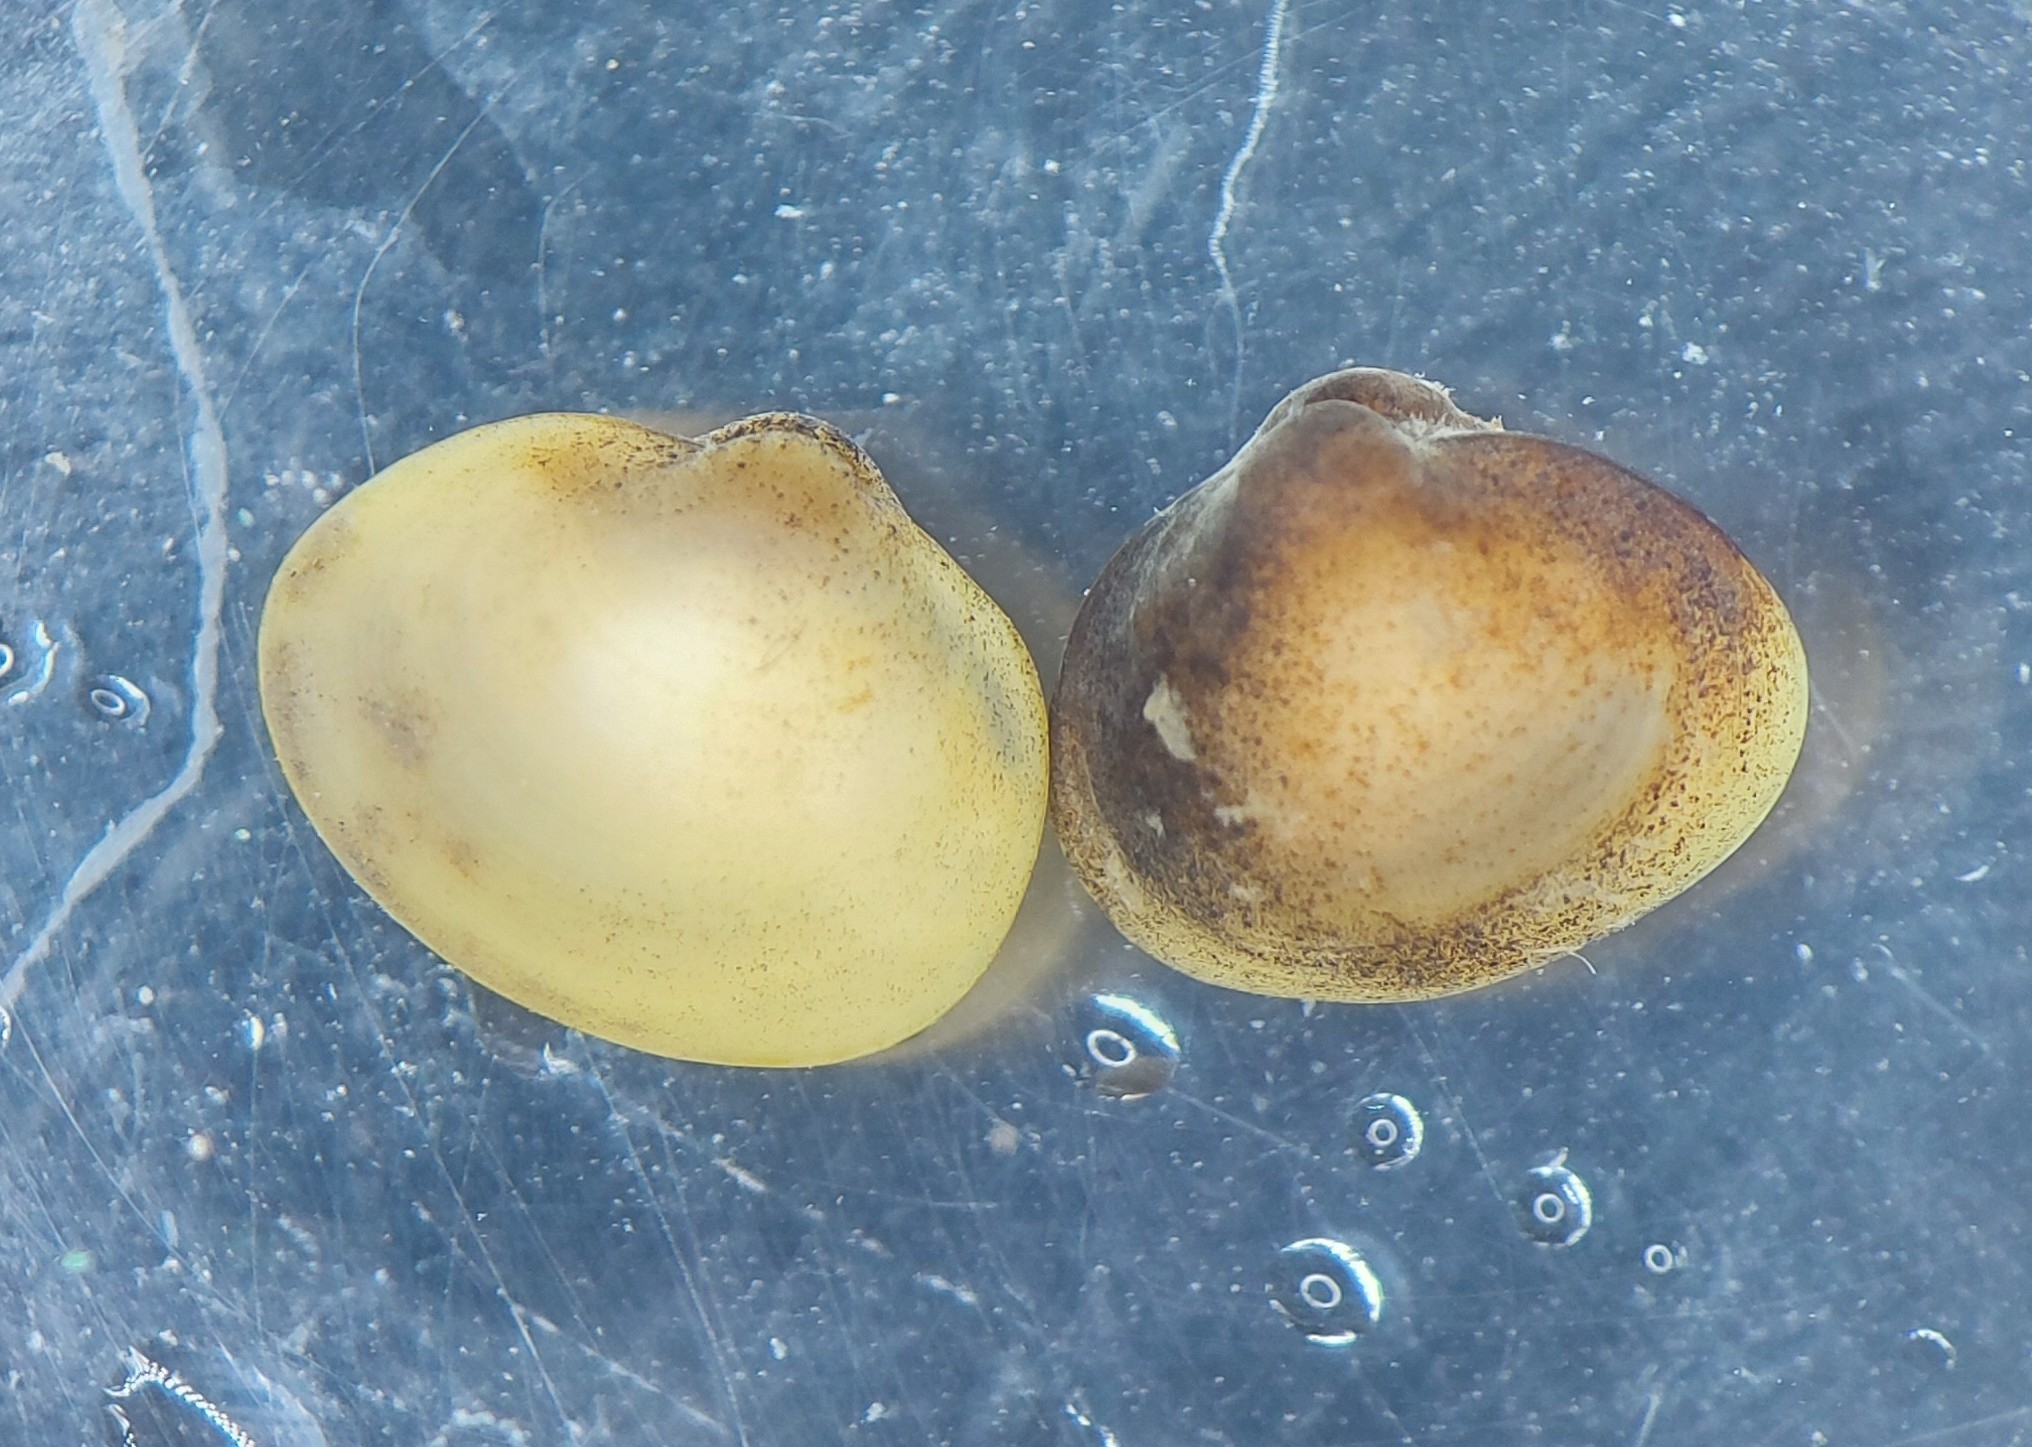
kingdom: Animalia
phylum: Mollusca
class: Bivalvia
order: Sphaeriida
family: Sphaeriidae
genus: Musculium
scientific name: Musculium lacustre
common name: Lake fingernailclam
